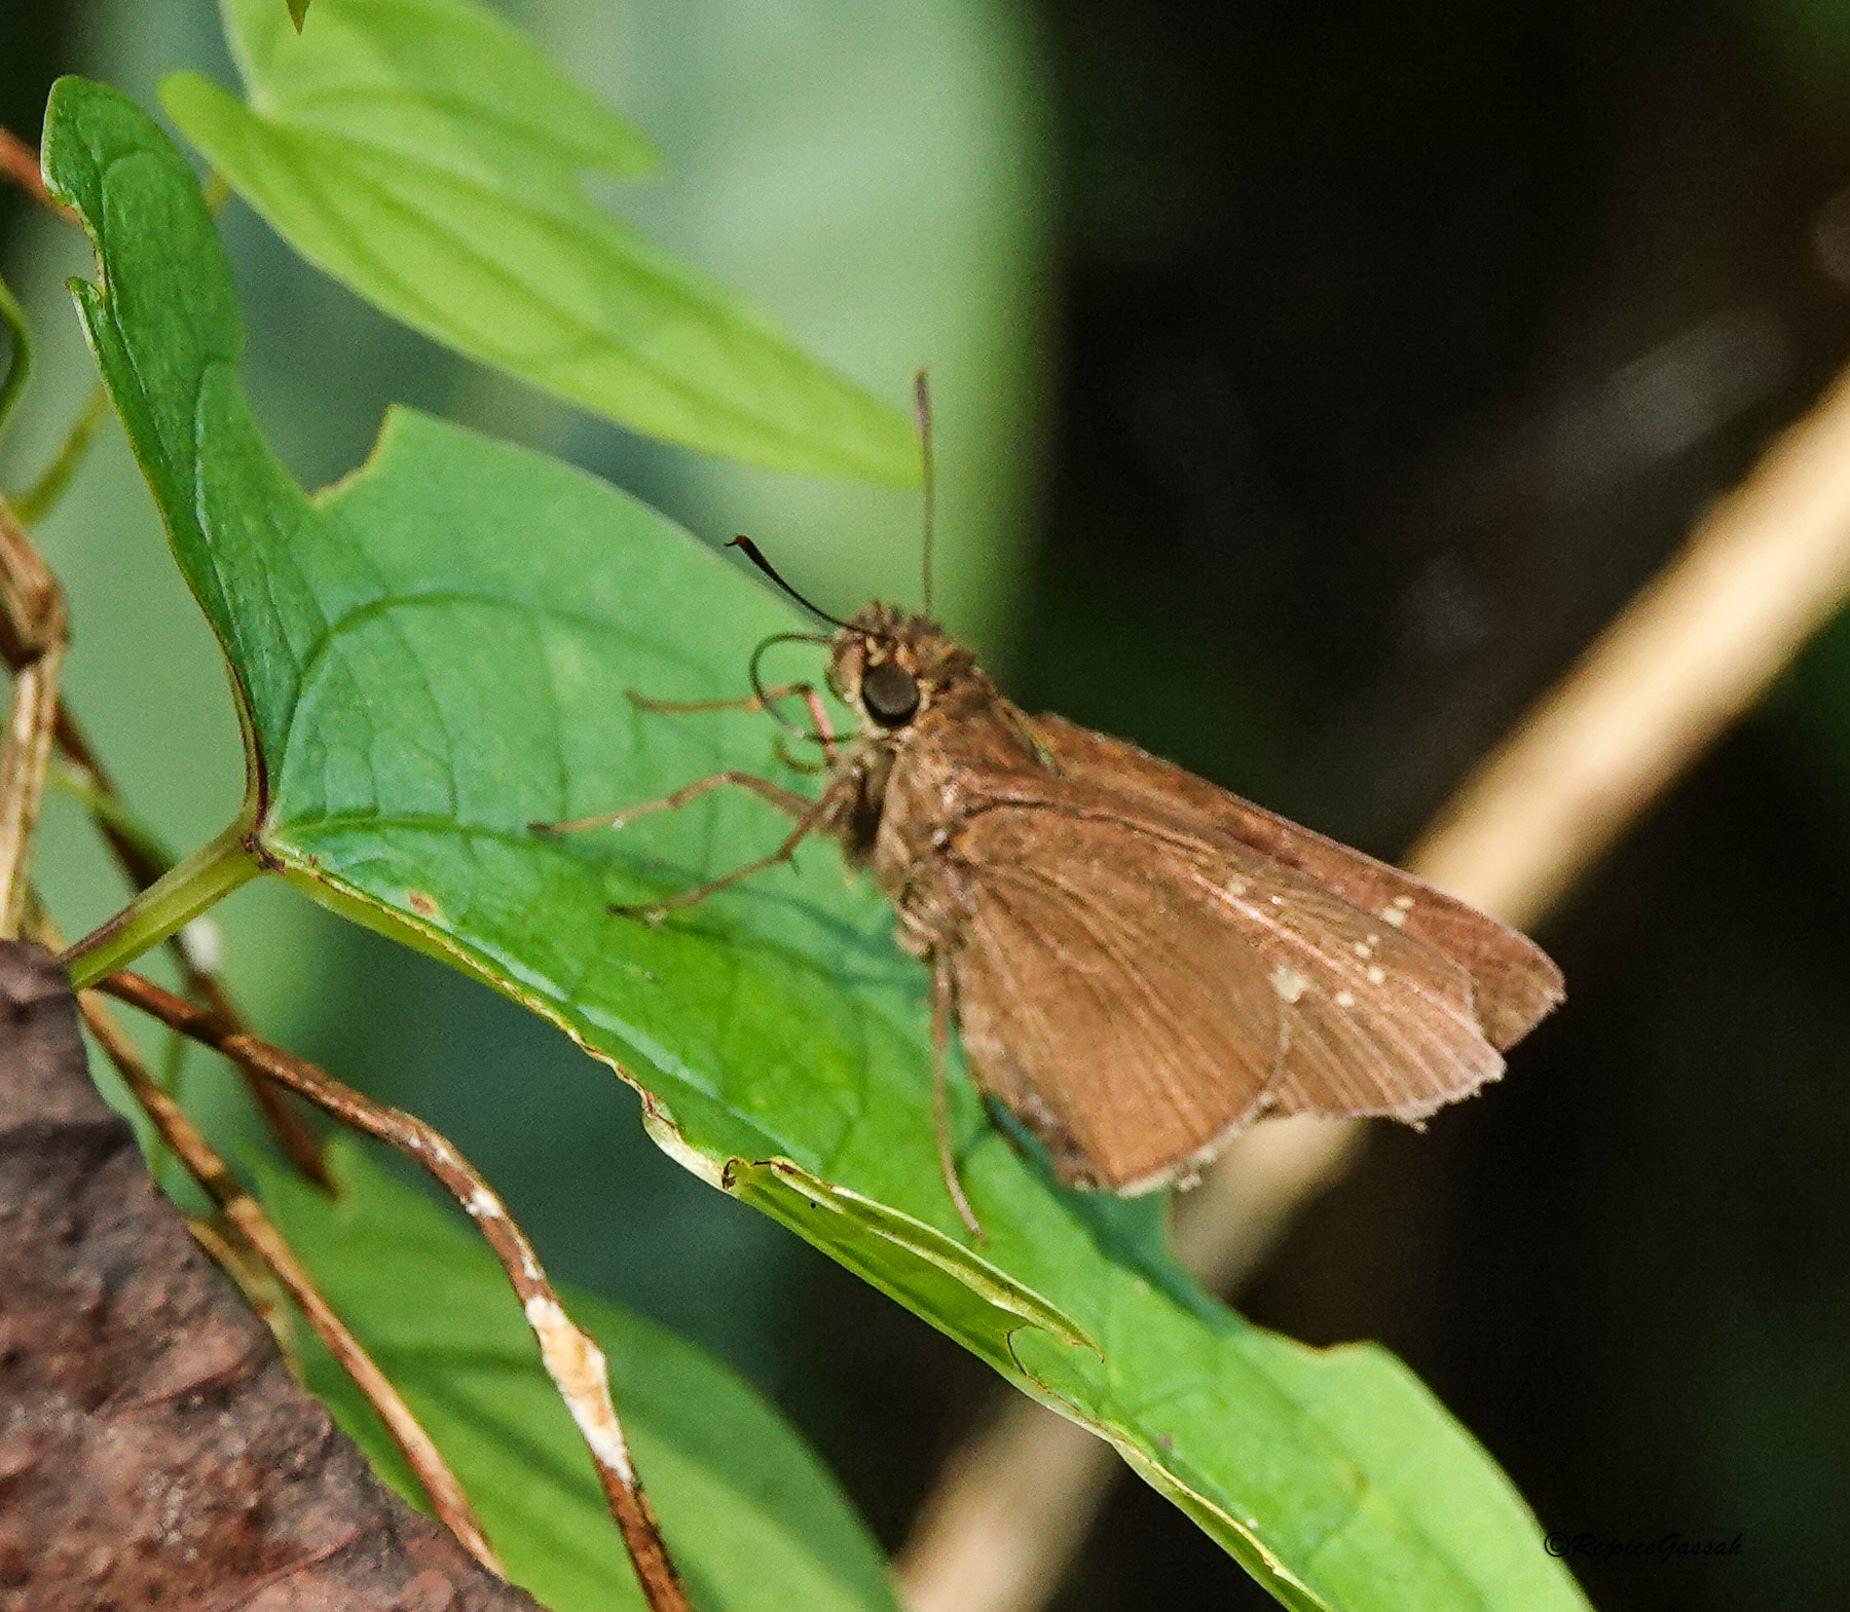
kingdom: Animalia
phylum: Arthropoda
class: Insecta
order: Lepidoptera
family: Hesperiidae
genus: Borbo
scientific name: Borbo cinnara
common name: Formosan swift
